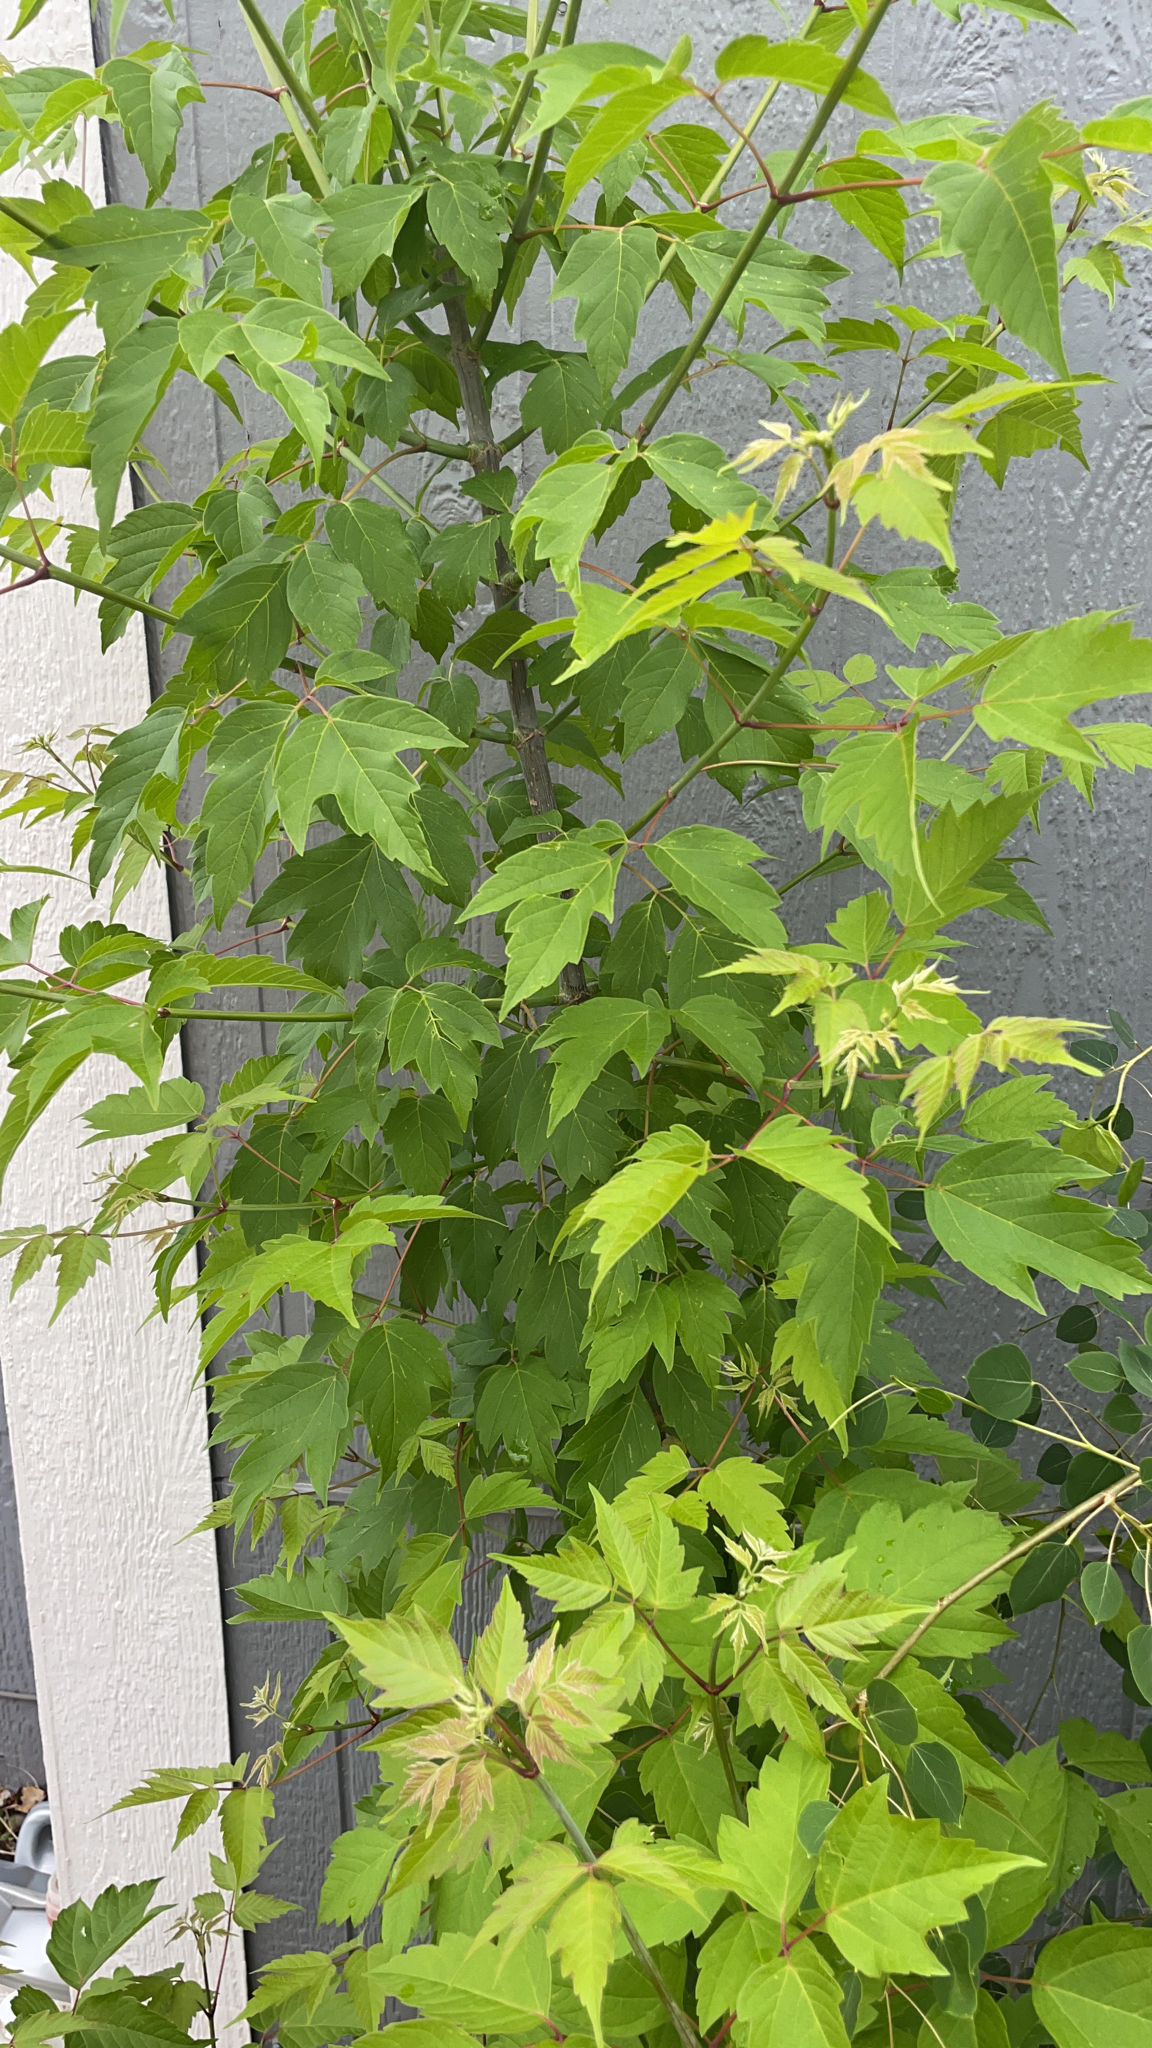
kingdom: Plantae
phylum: Tracheophyta
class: Magnoliopsida
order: Sapindales
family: Sapindaceae
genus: Acer
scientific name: Acer negundo
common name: Ashleaf maple
